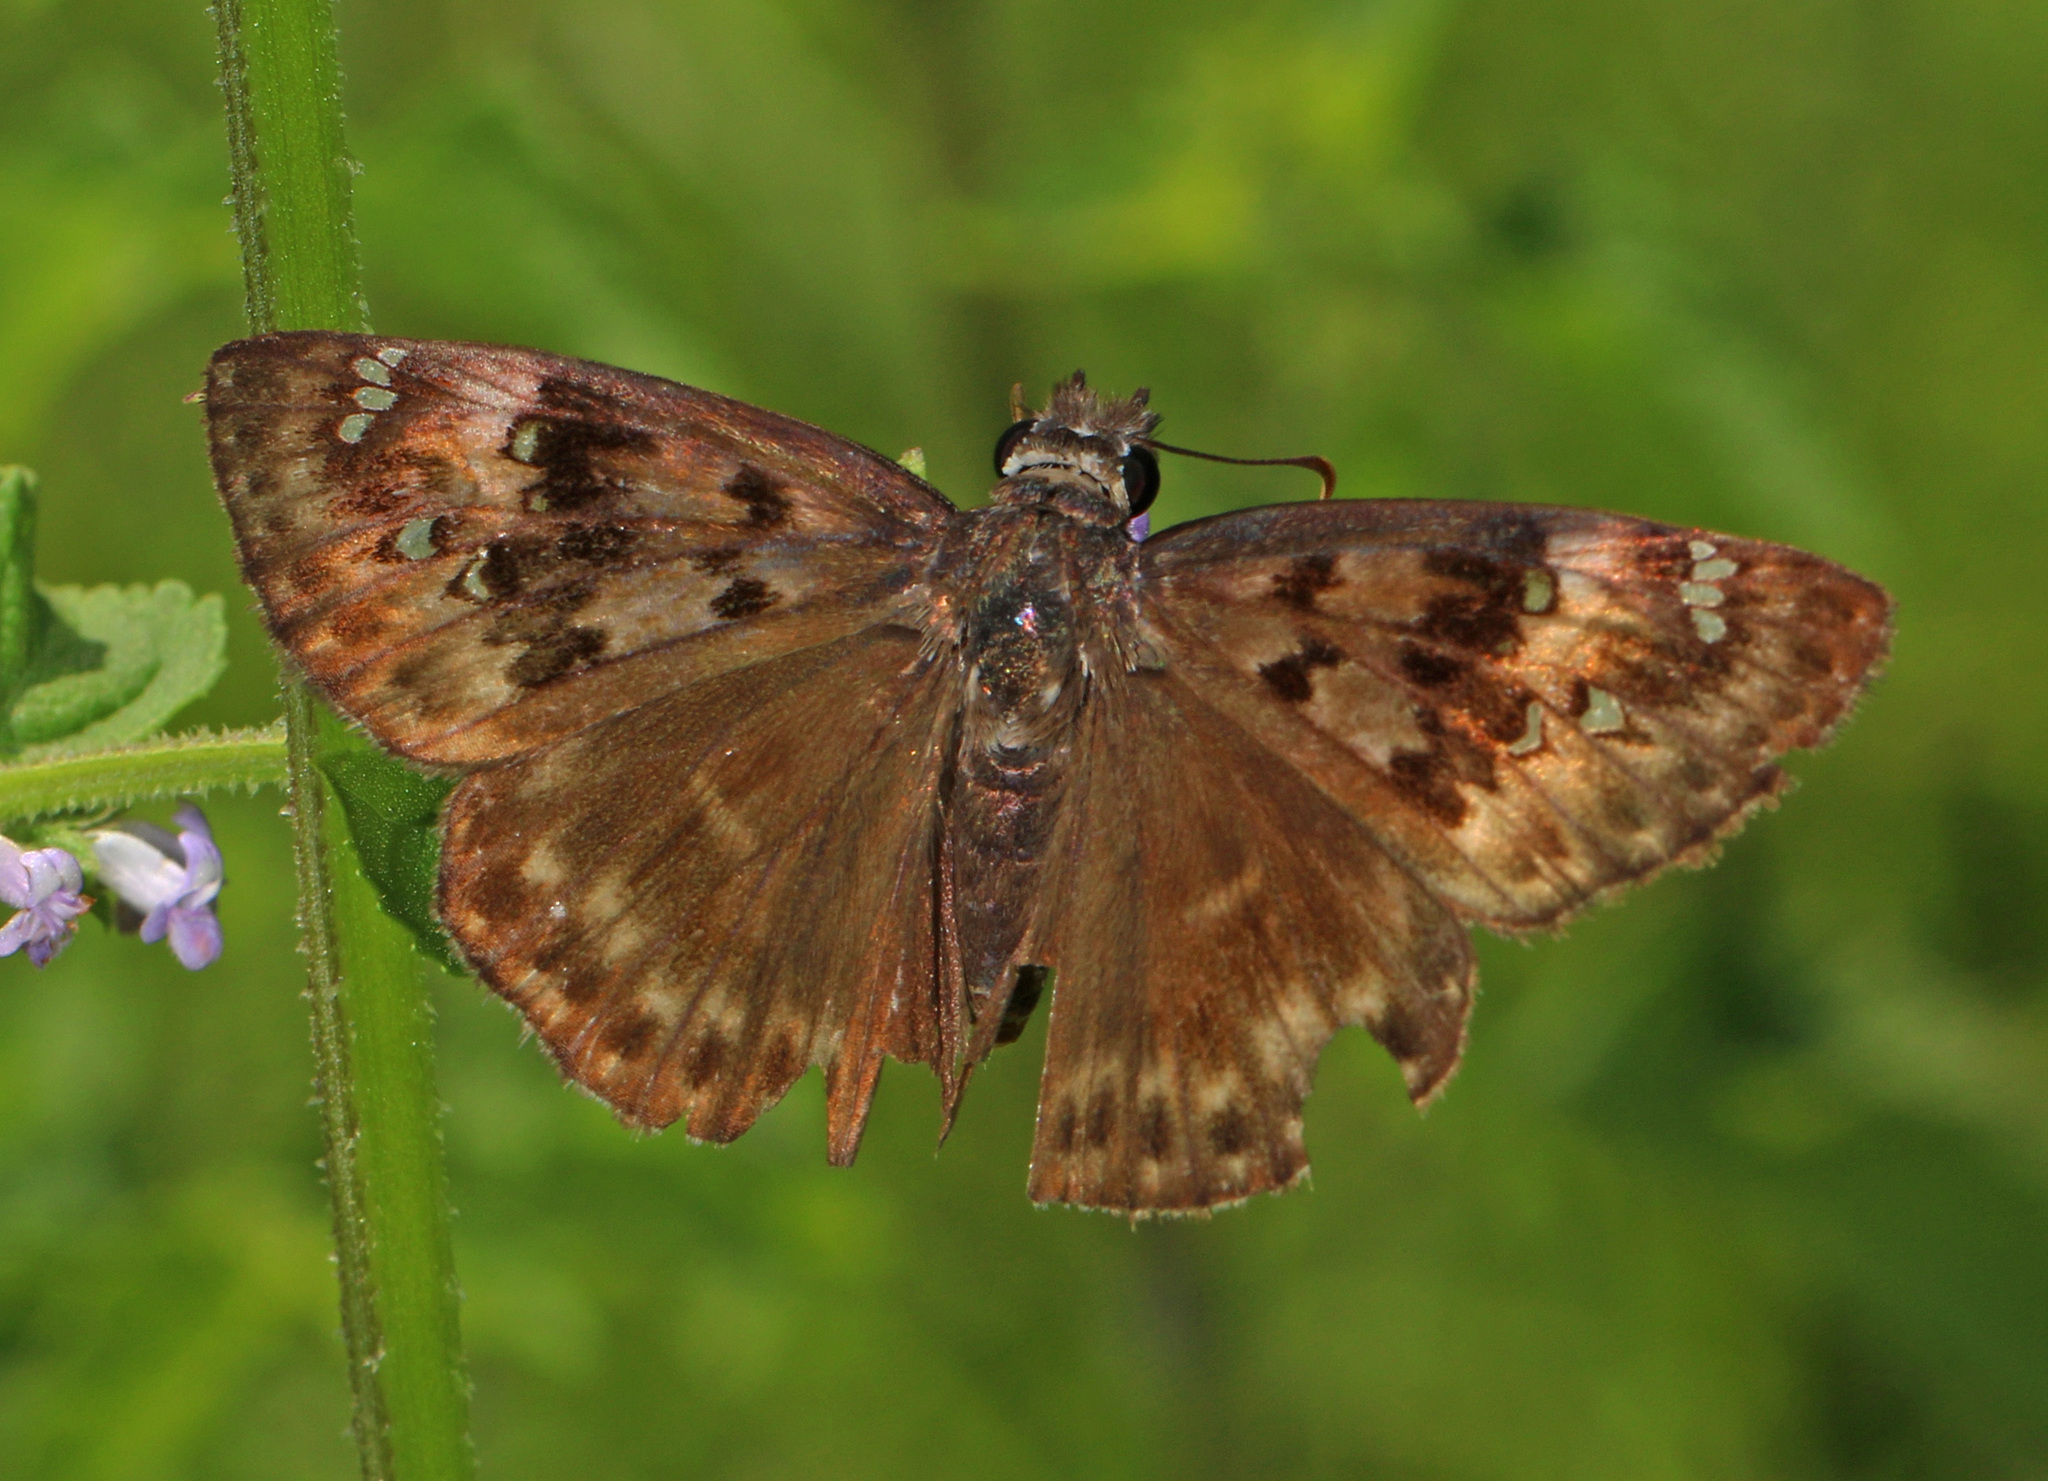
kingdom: Animalia
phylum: Arthropoda
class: Insecta
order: Lepidoptera
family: Hesperiidae
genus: Erynnis
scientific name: Erynnis horatius
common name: Horace's duskywing
